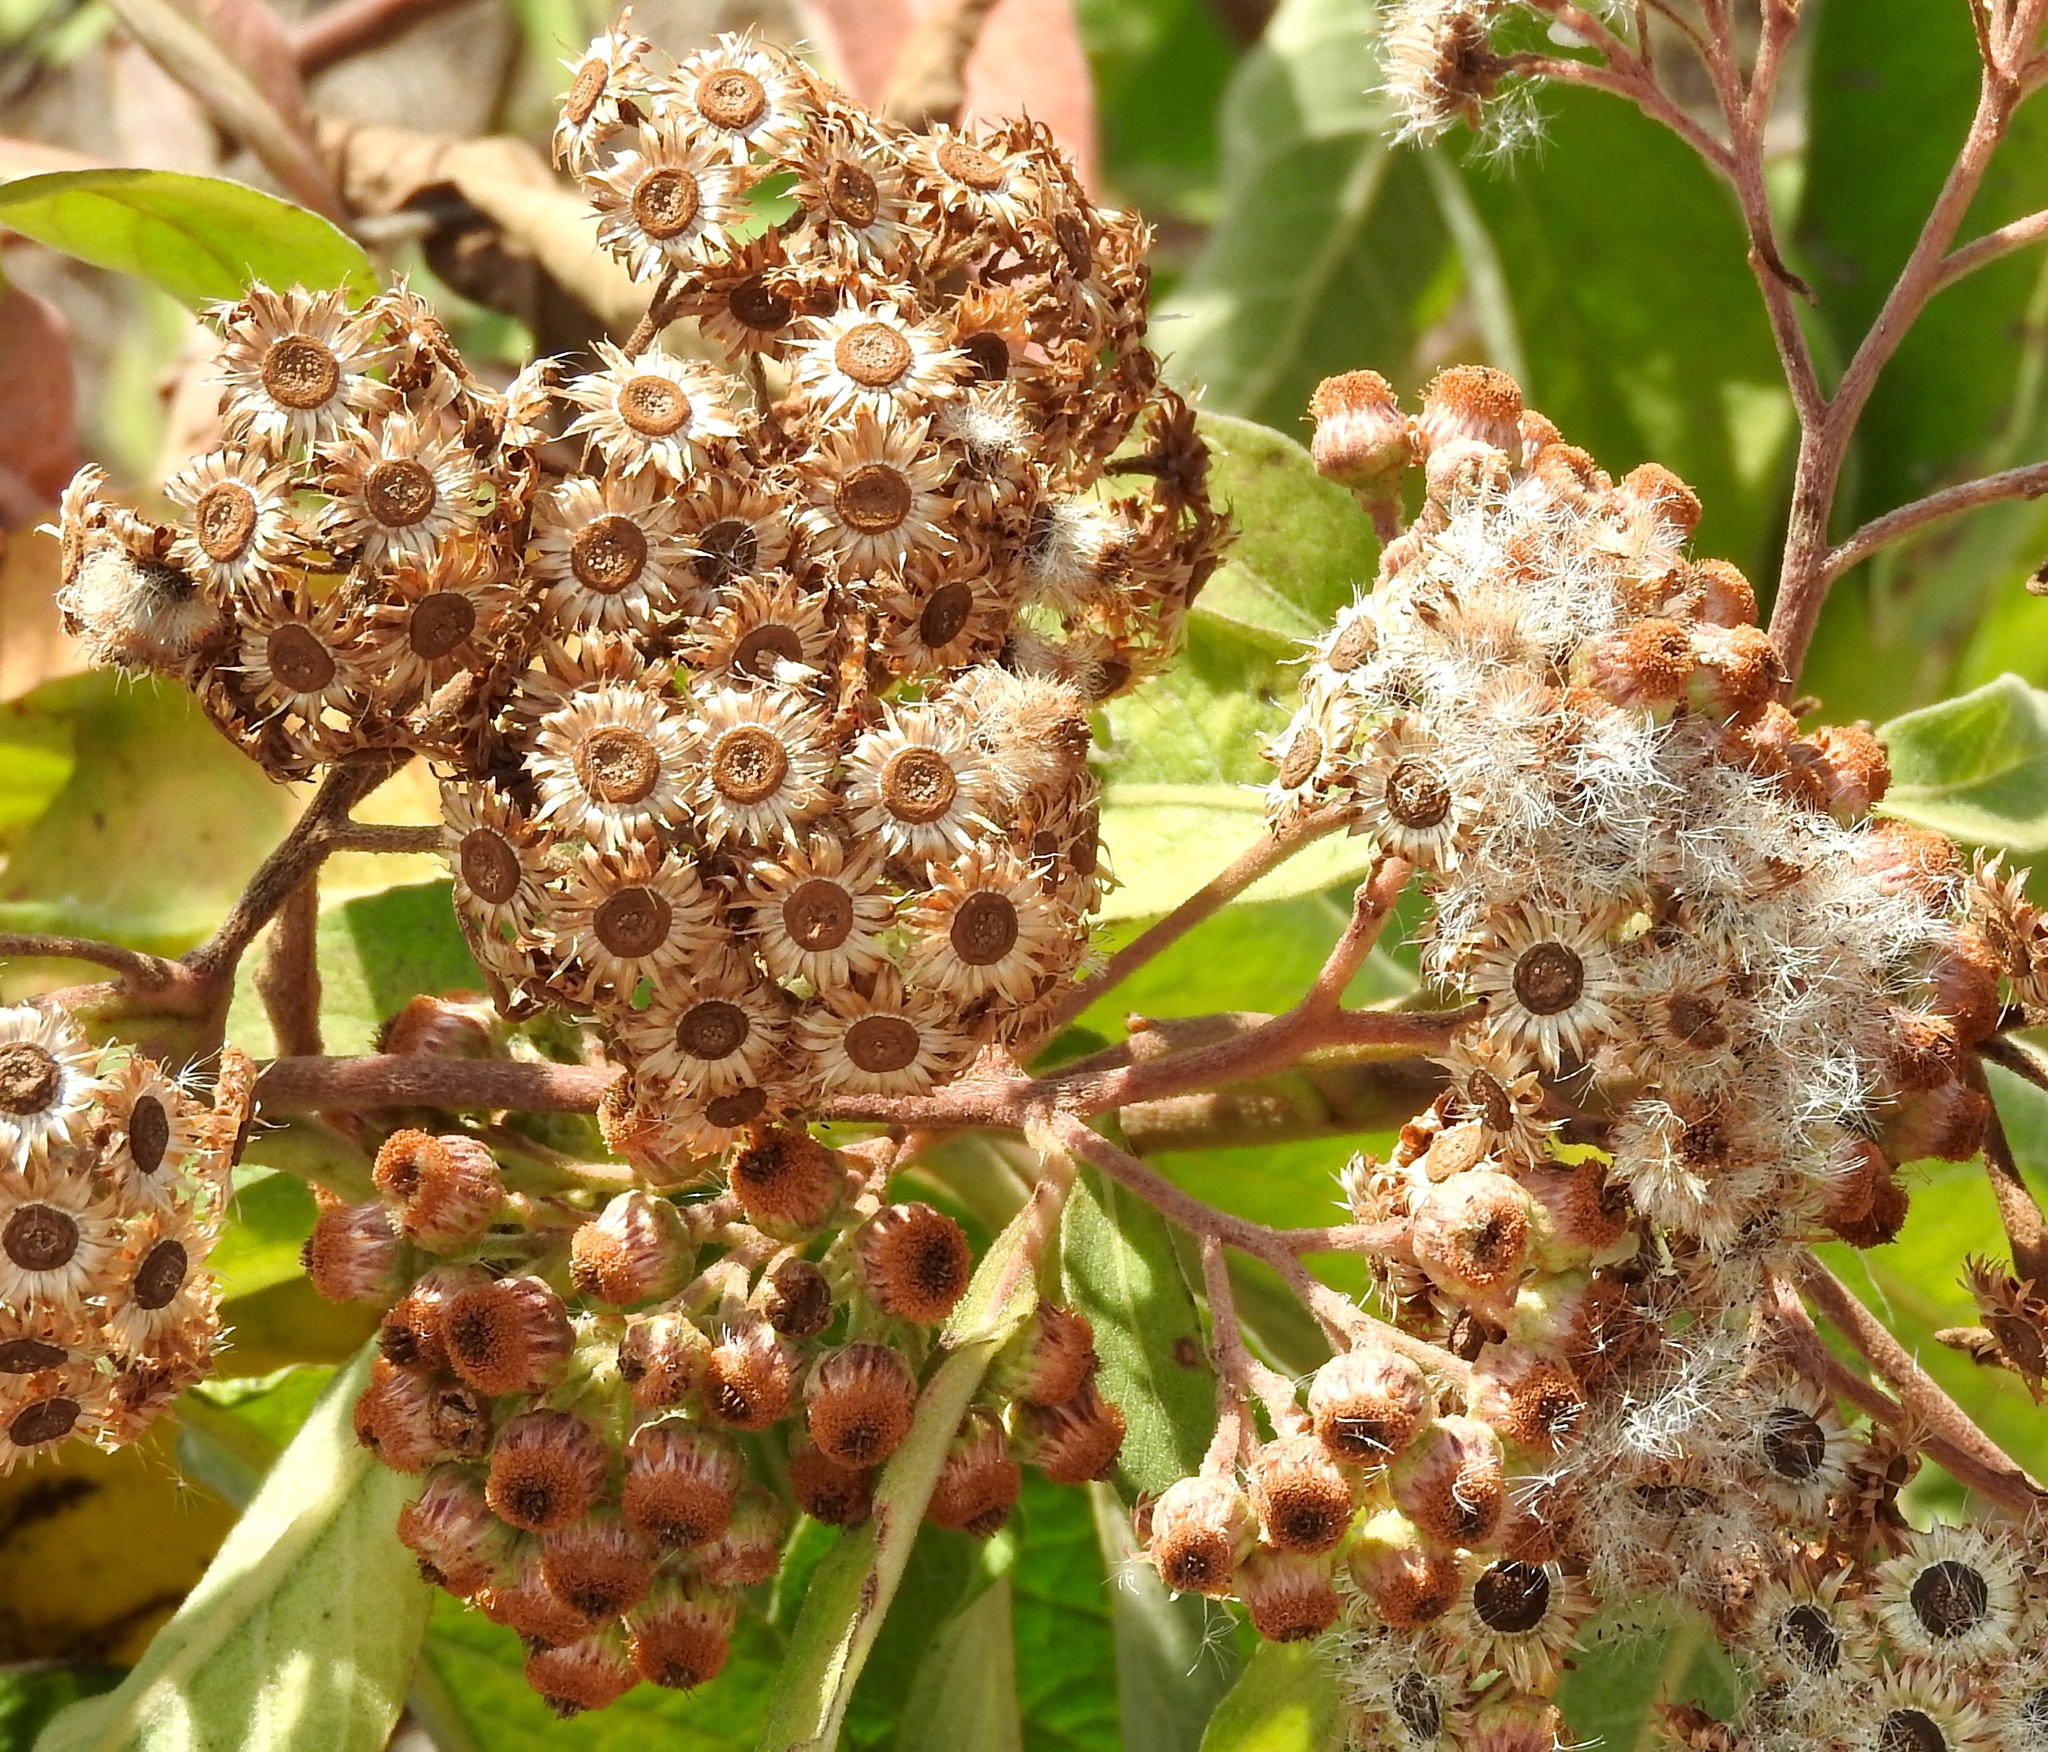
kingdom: Plantae
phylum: Tracheophyta
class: Magnoliopsida
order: Asterales
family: Asteraceae
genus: Pluchea
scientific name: Pluchea carolinensis
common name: Marsh fleabane
